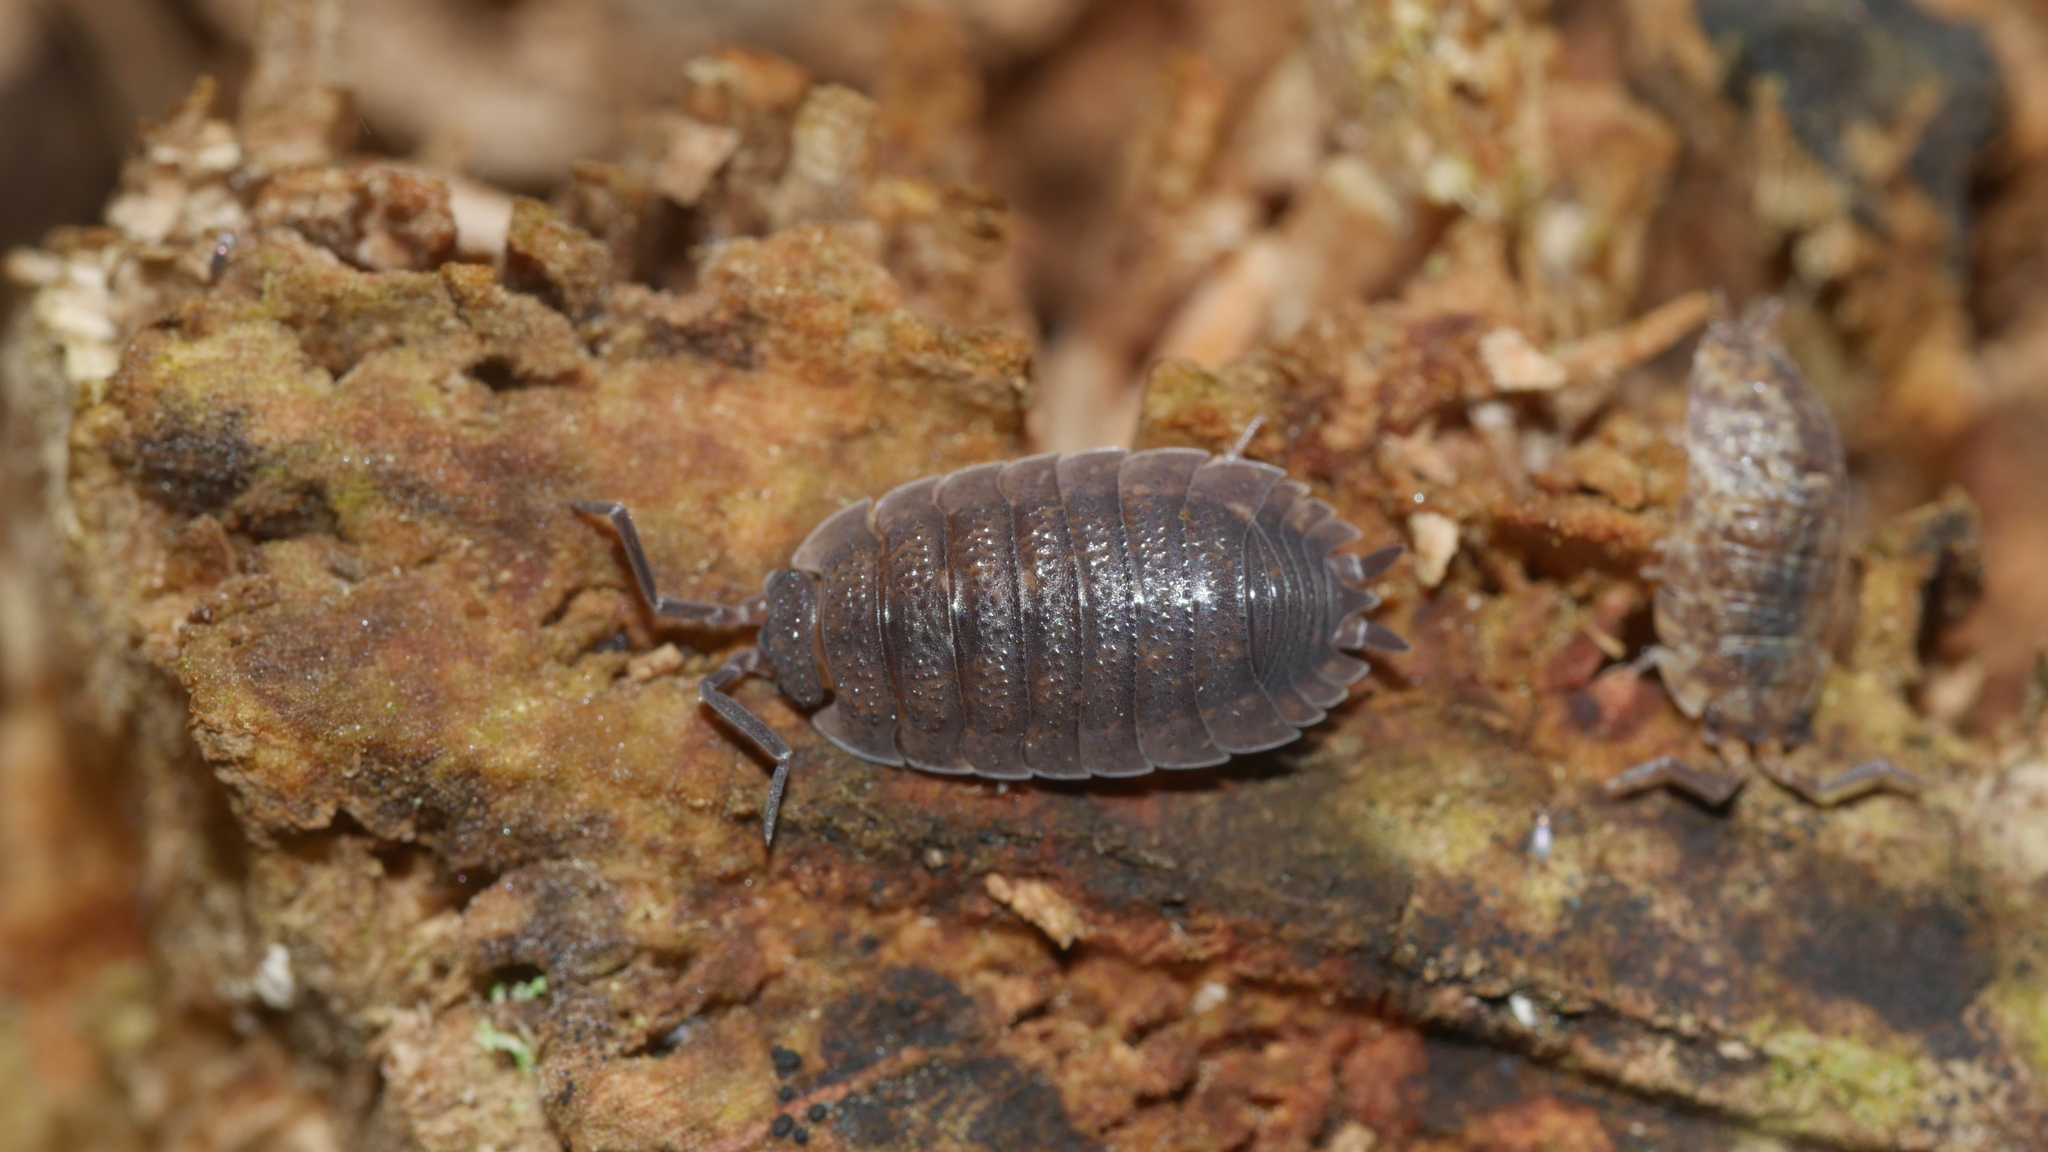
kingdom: Animalia
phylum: Arthropoda
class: Malacostraca
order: Isopoda
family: Porcellionidae
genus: Porcellio
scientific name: Porcellio scaber
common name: Common rough woodlouse
